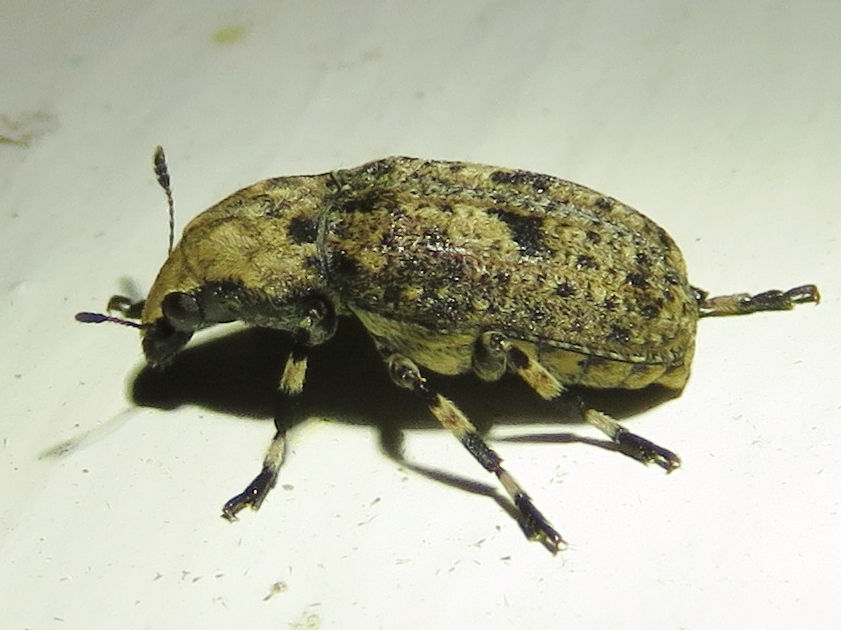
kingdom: Animalia
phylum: Arthropoda
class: Insecta
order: Coleoptera
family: Anthribidae
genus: Euparius
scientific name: Euparius marmoreus
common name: Marbled fungus weevil
